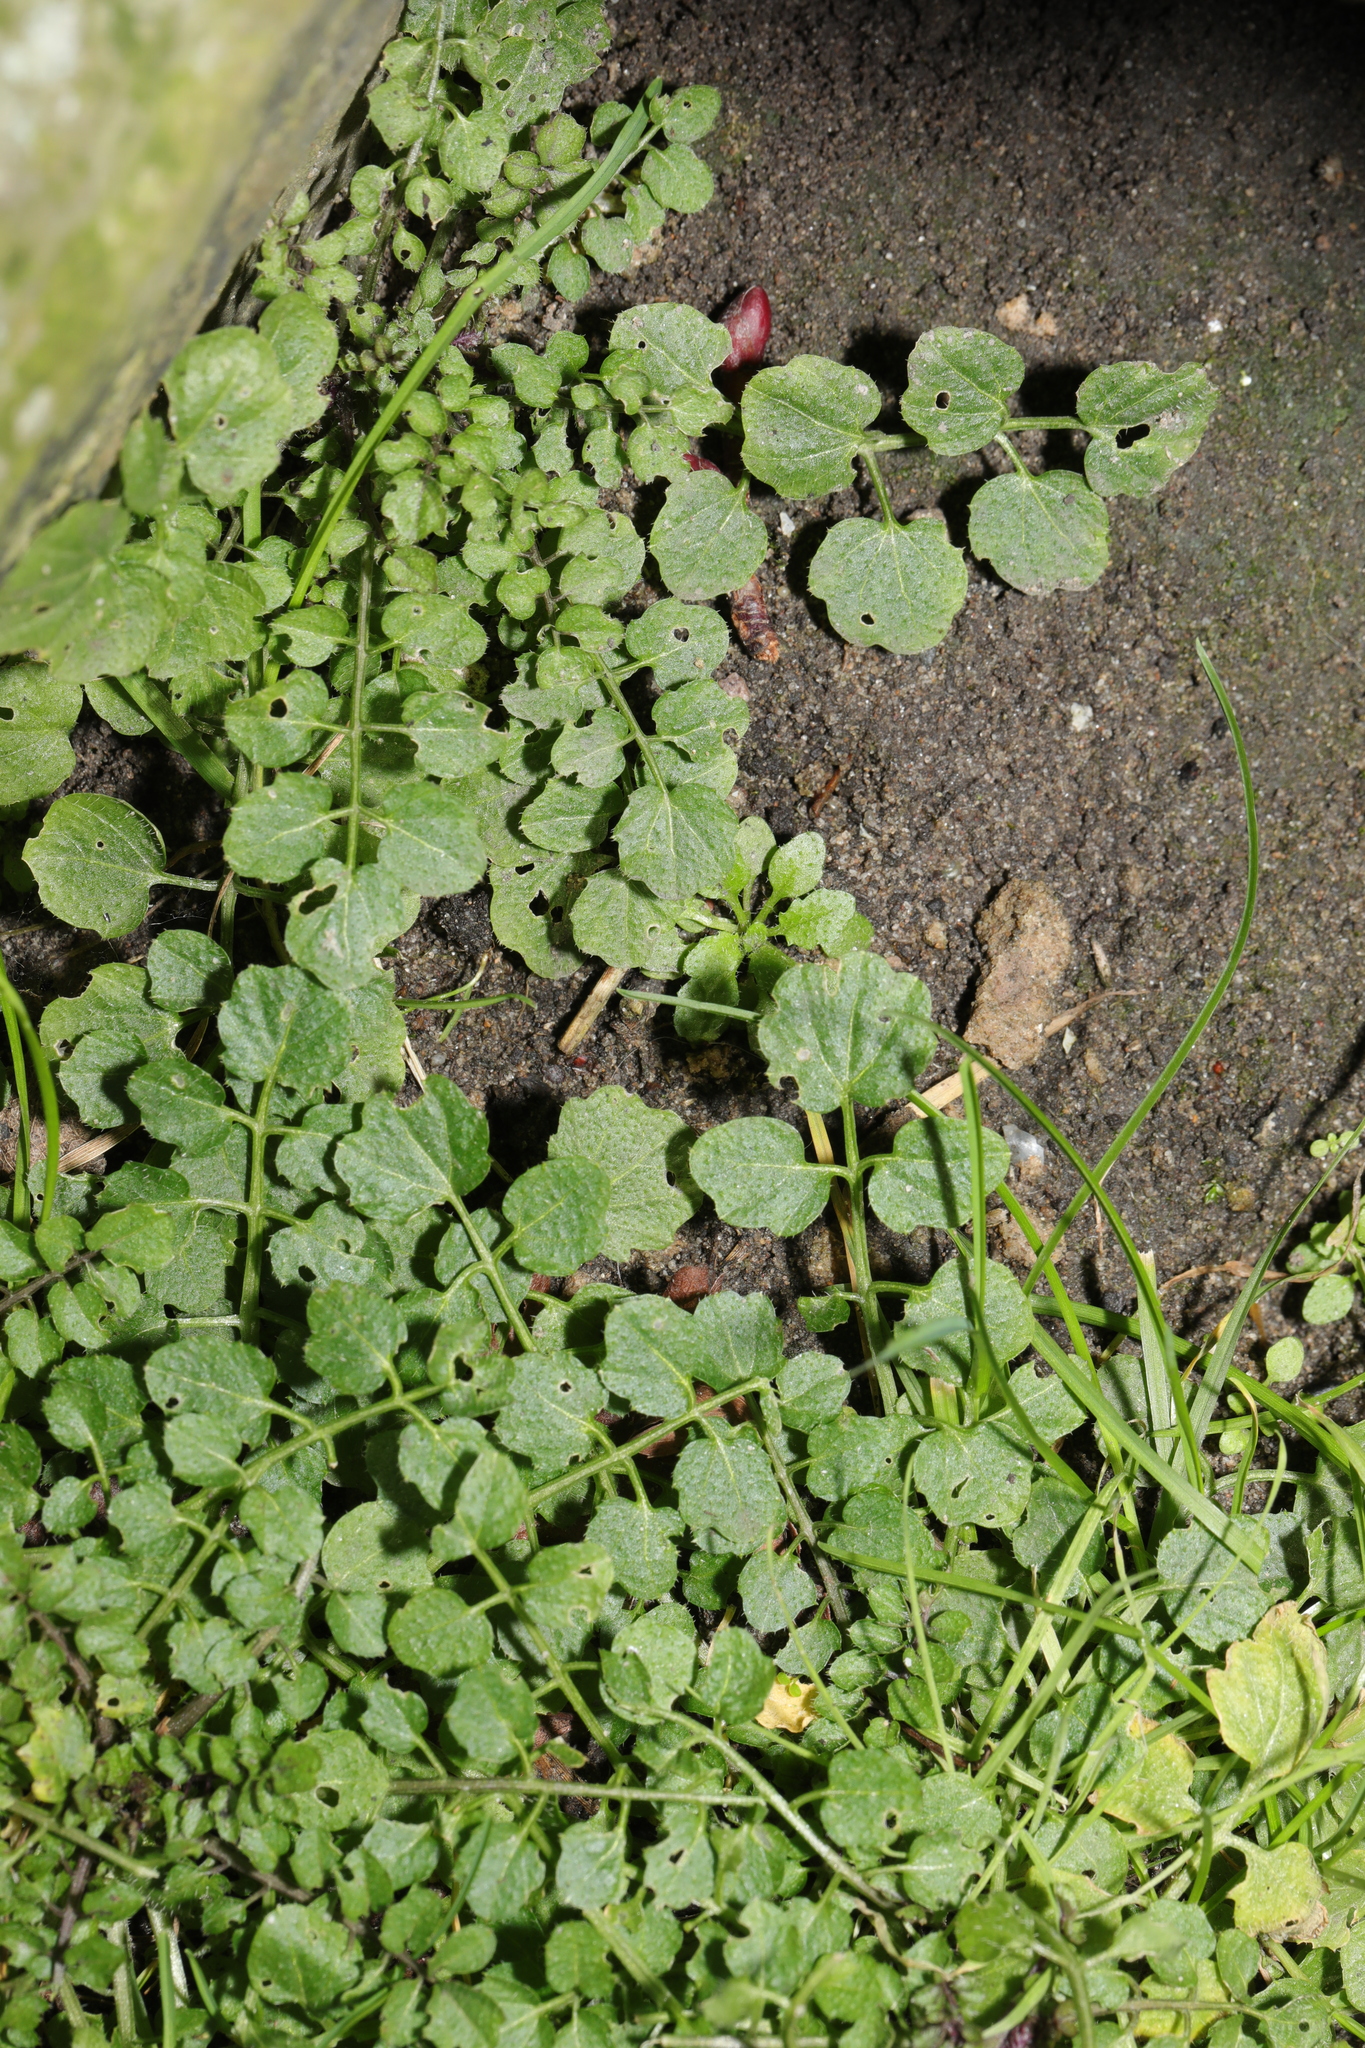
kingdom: Plantae
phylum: Tracheophyta
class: Magnoliopsida
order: Brassicales
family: Brassicaceae
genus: Cardamine
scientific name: Cardamine flexuosa
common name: Woodland bittercress
